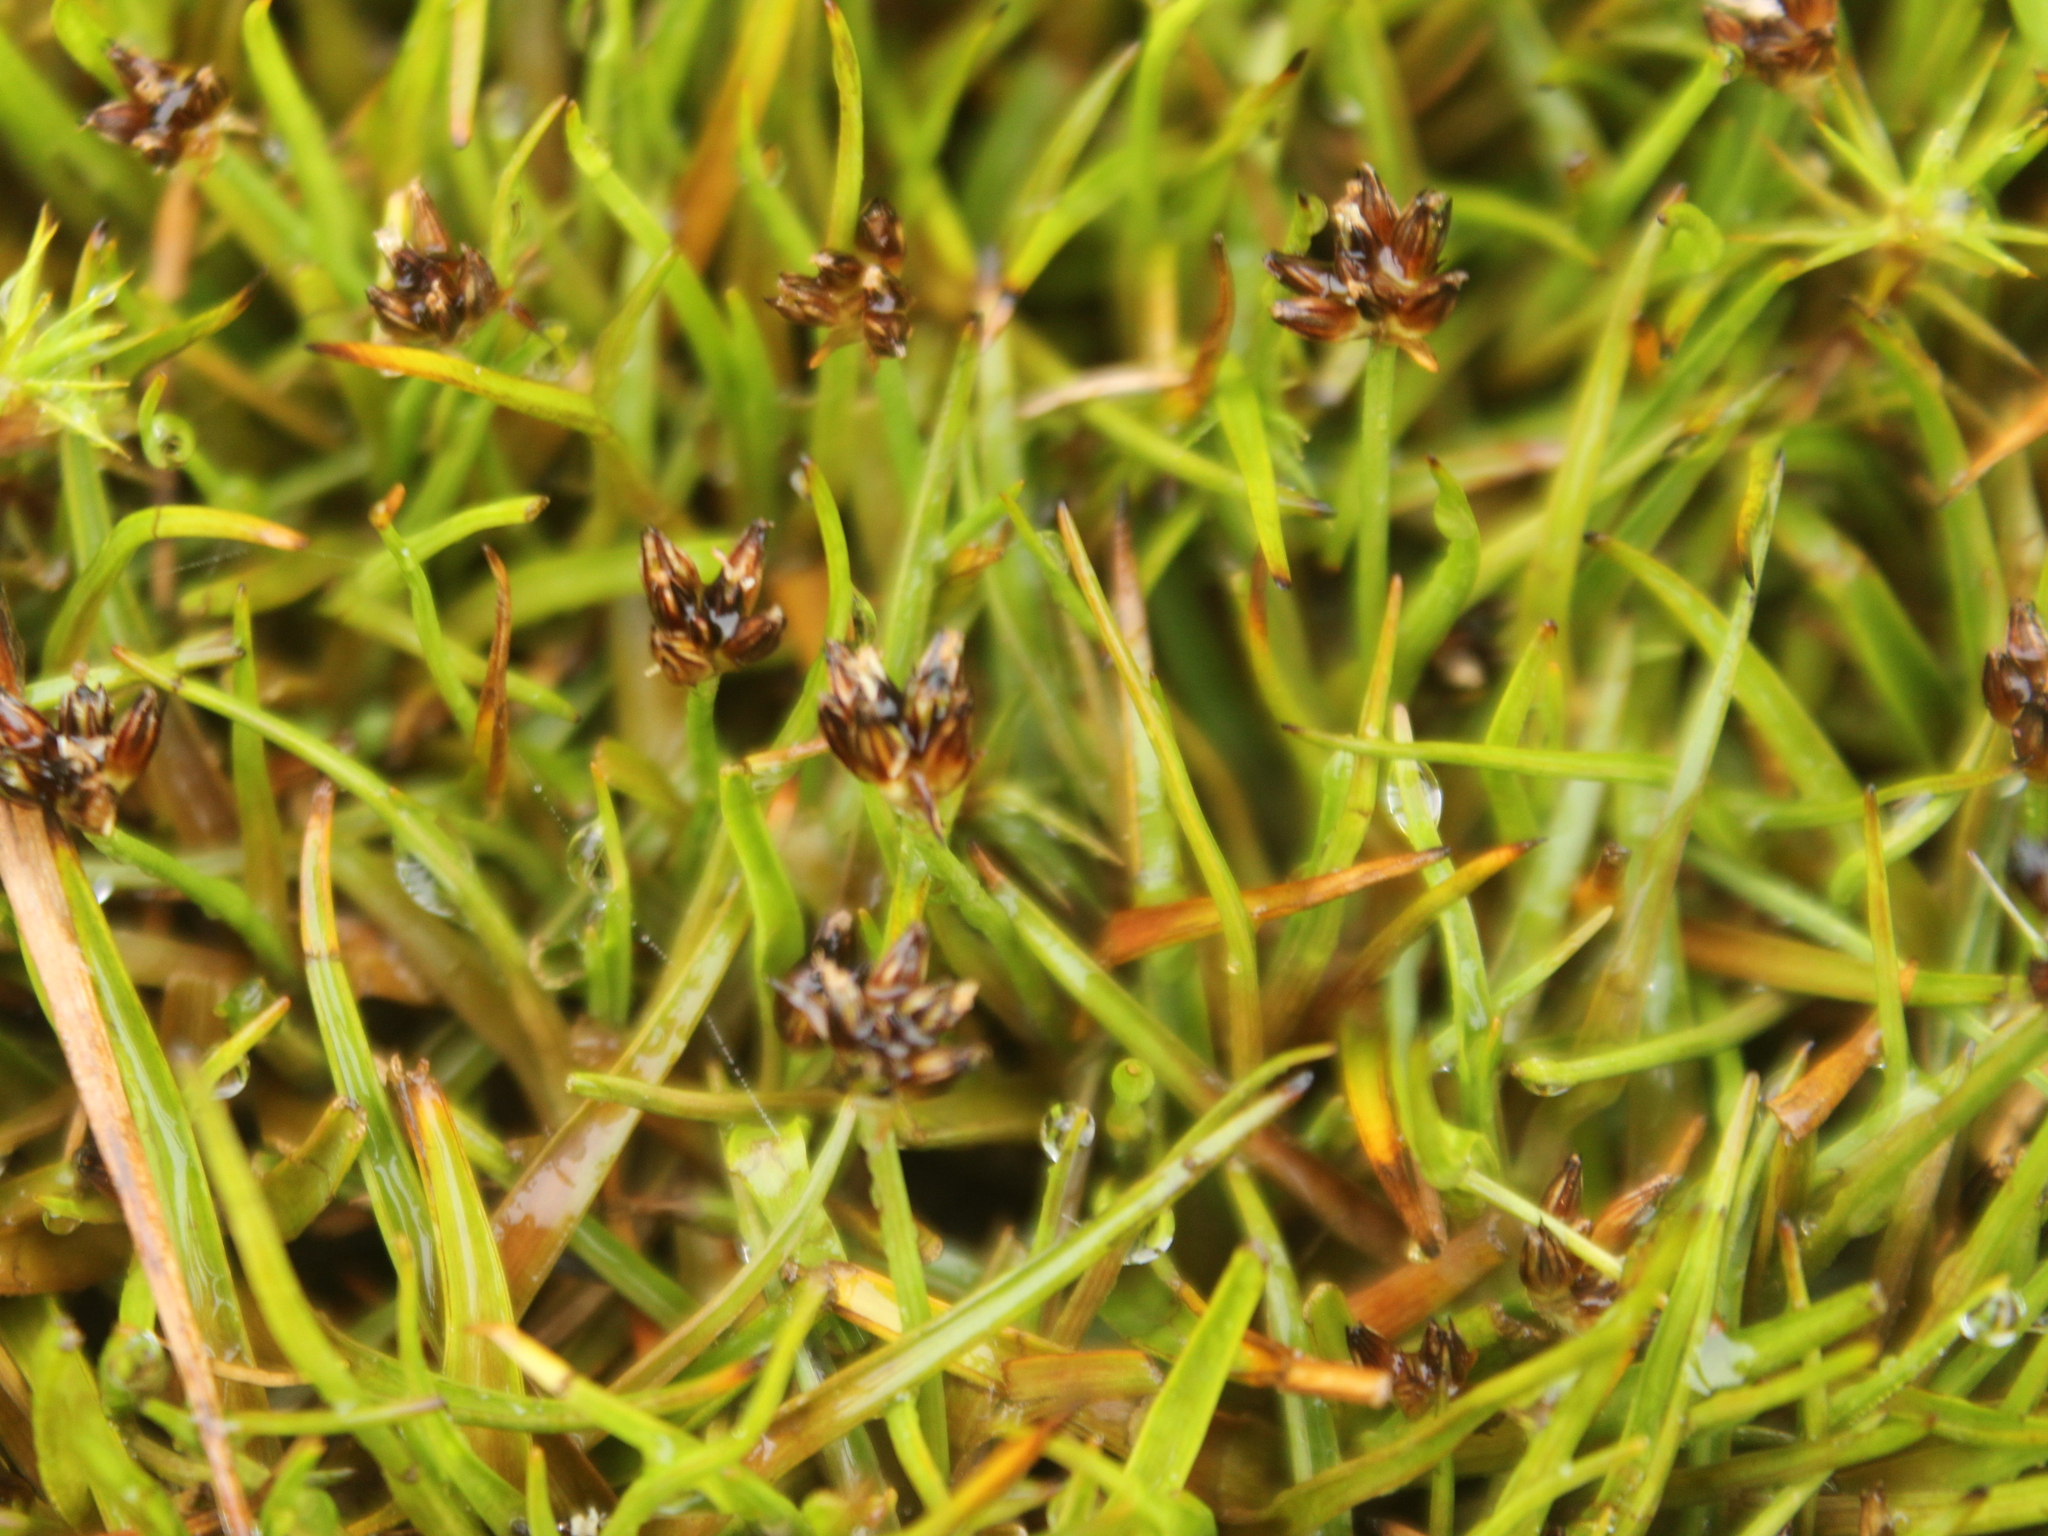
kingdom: Plantae
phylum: Tracheophyta
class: Liliopsida
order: Poales
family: Juncaceae
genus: Juncus
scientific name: Juncus antarcticus
